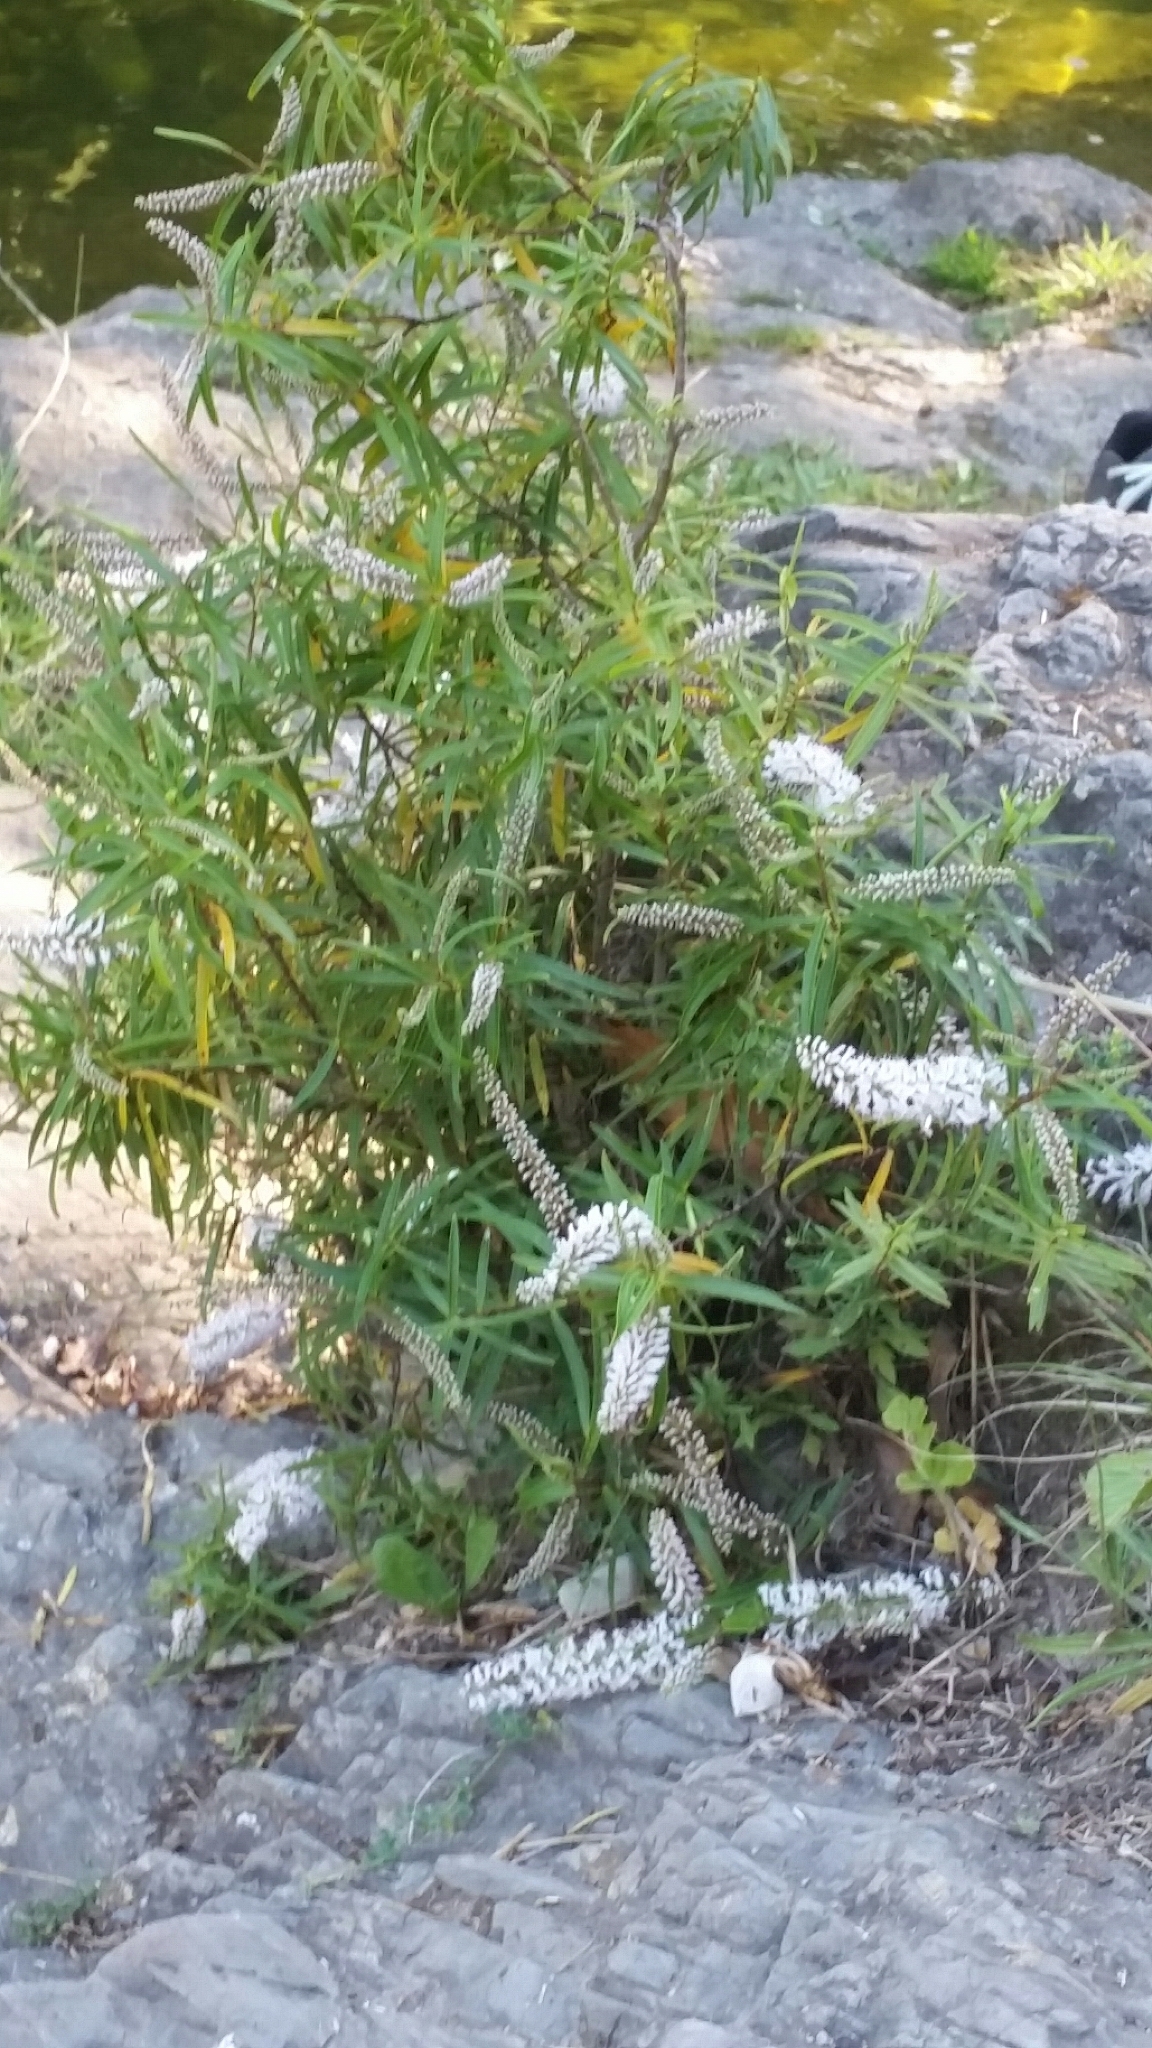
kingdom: Plantae
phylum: Tracheophyta
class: Magnoliopsida
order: Lamiales
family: Plantaginaceae
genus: Veronica
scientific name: Veronica stenophylla
